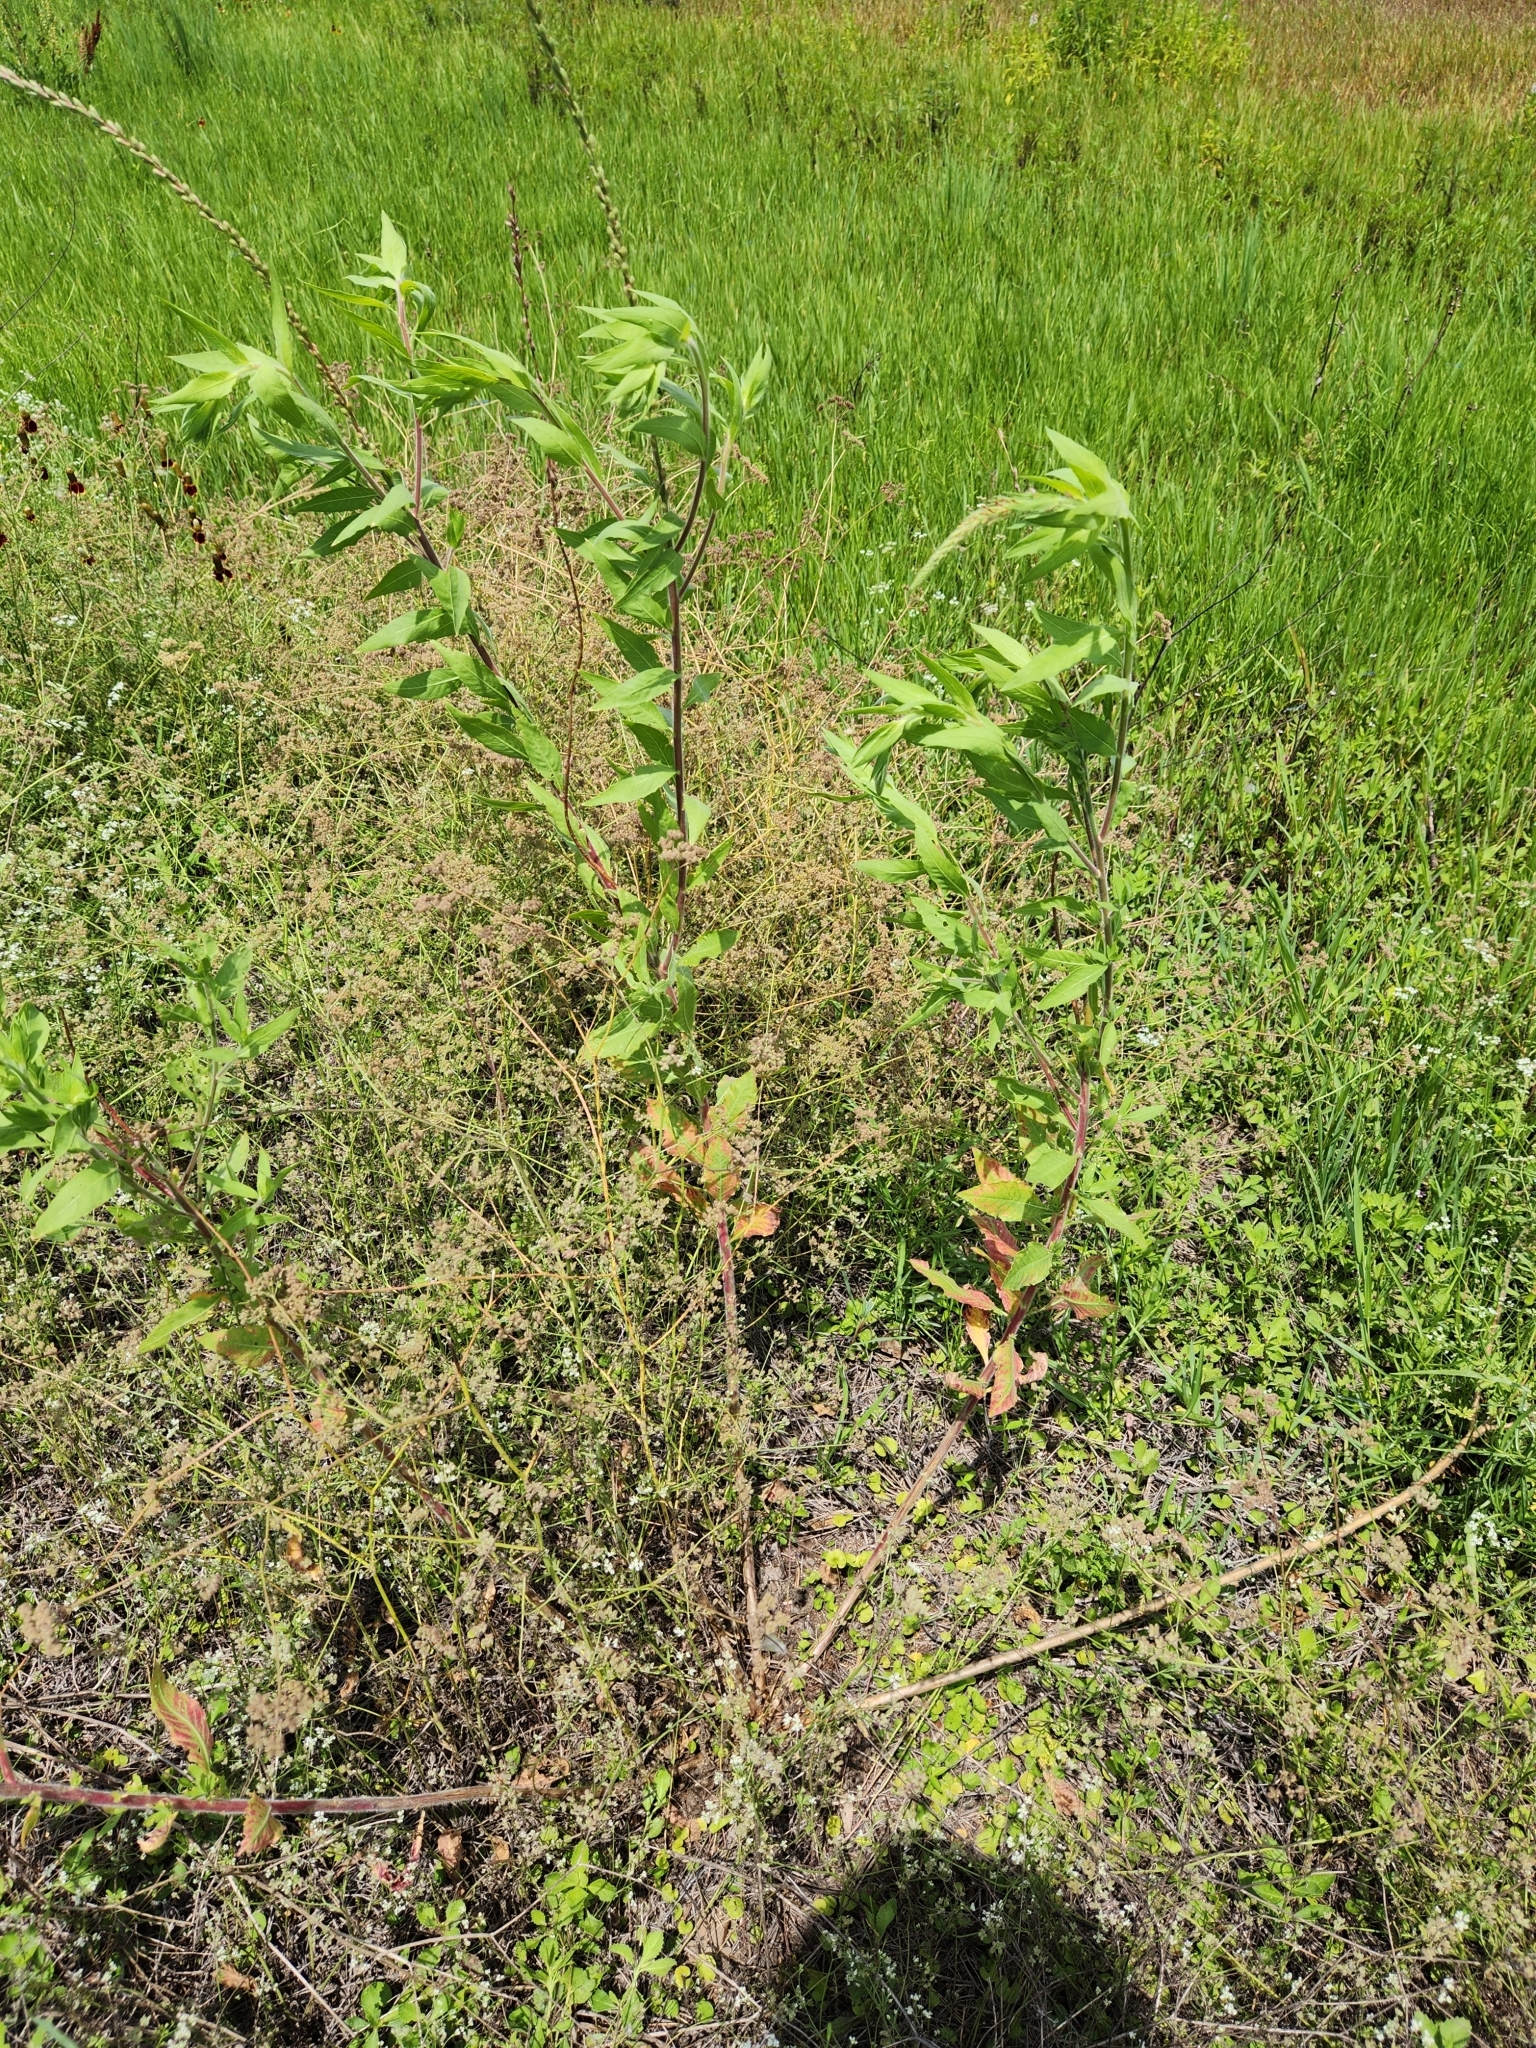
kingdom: Plantae
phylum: Tracheophyta
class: Magnoliopsida
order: Myrtales
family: Onagraceae
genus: Oenothera
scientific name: Oenothera curtiflora
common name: Velvetweed
